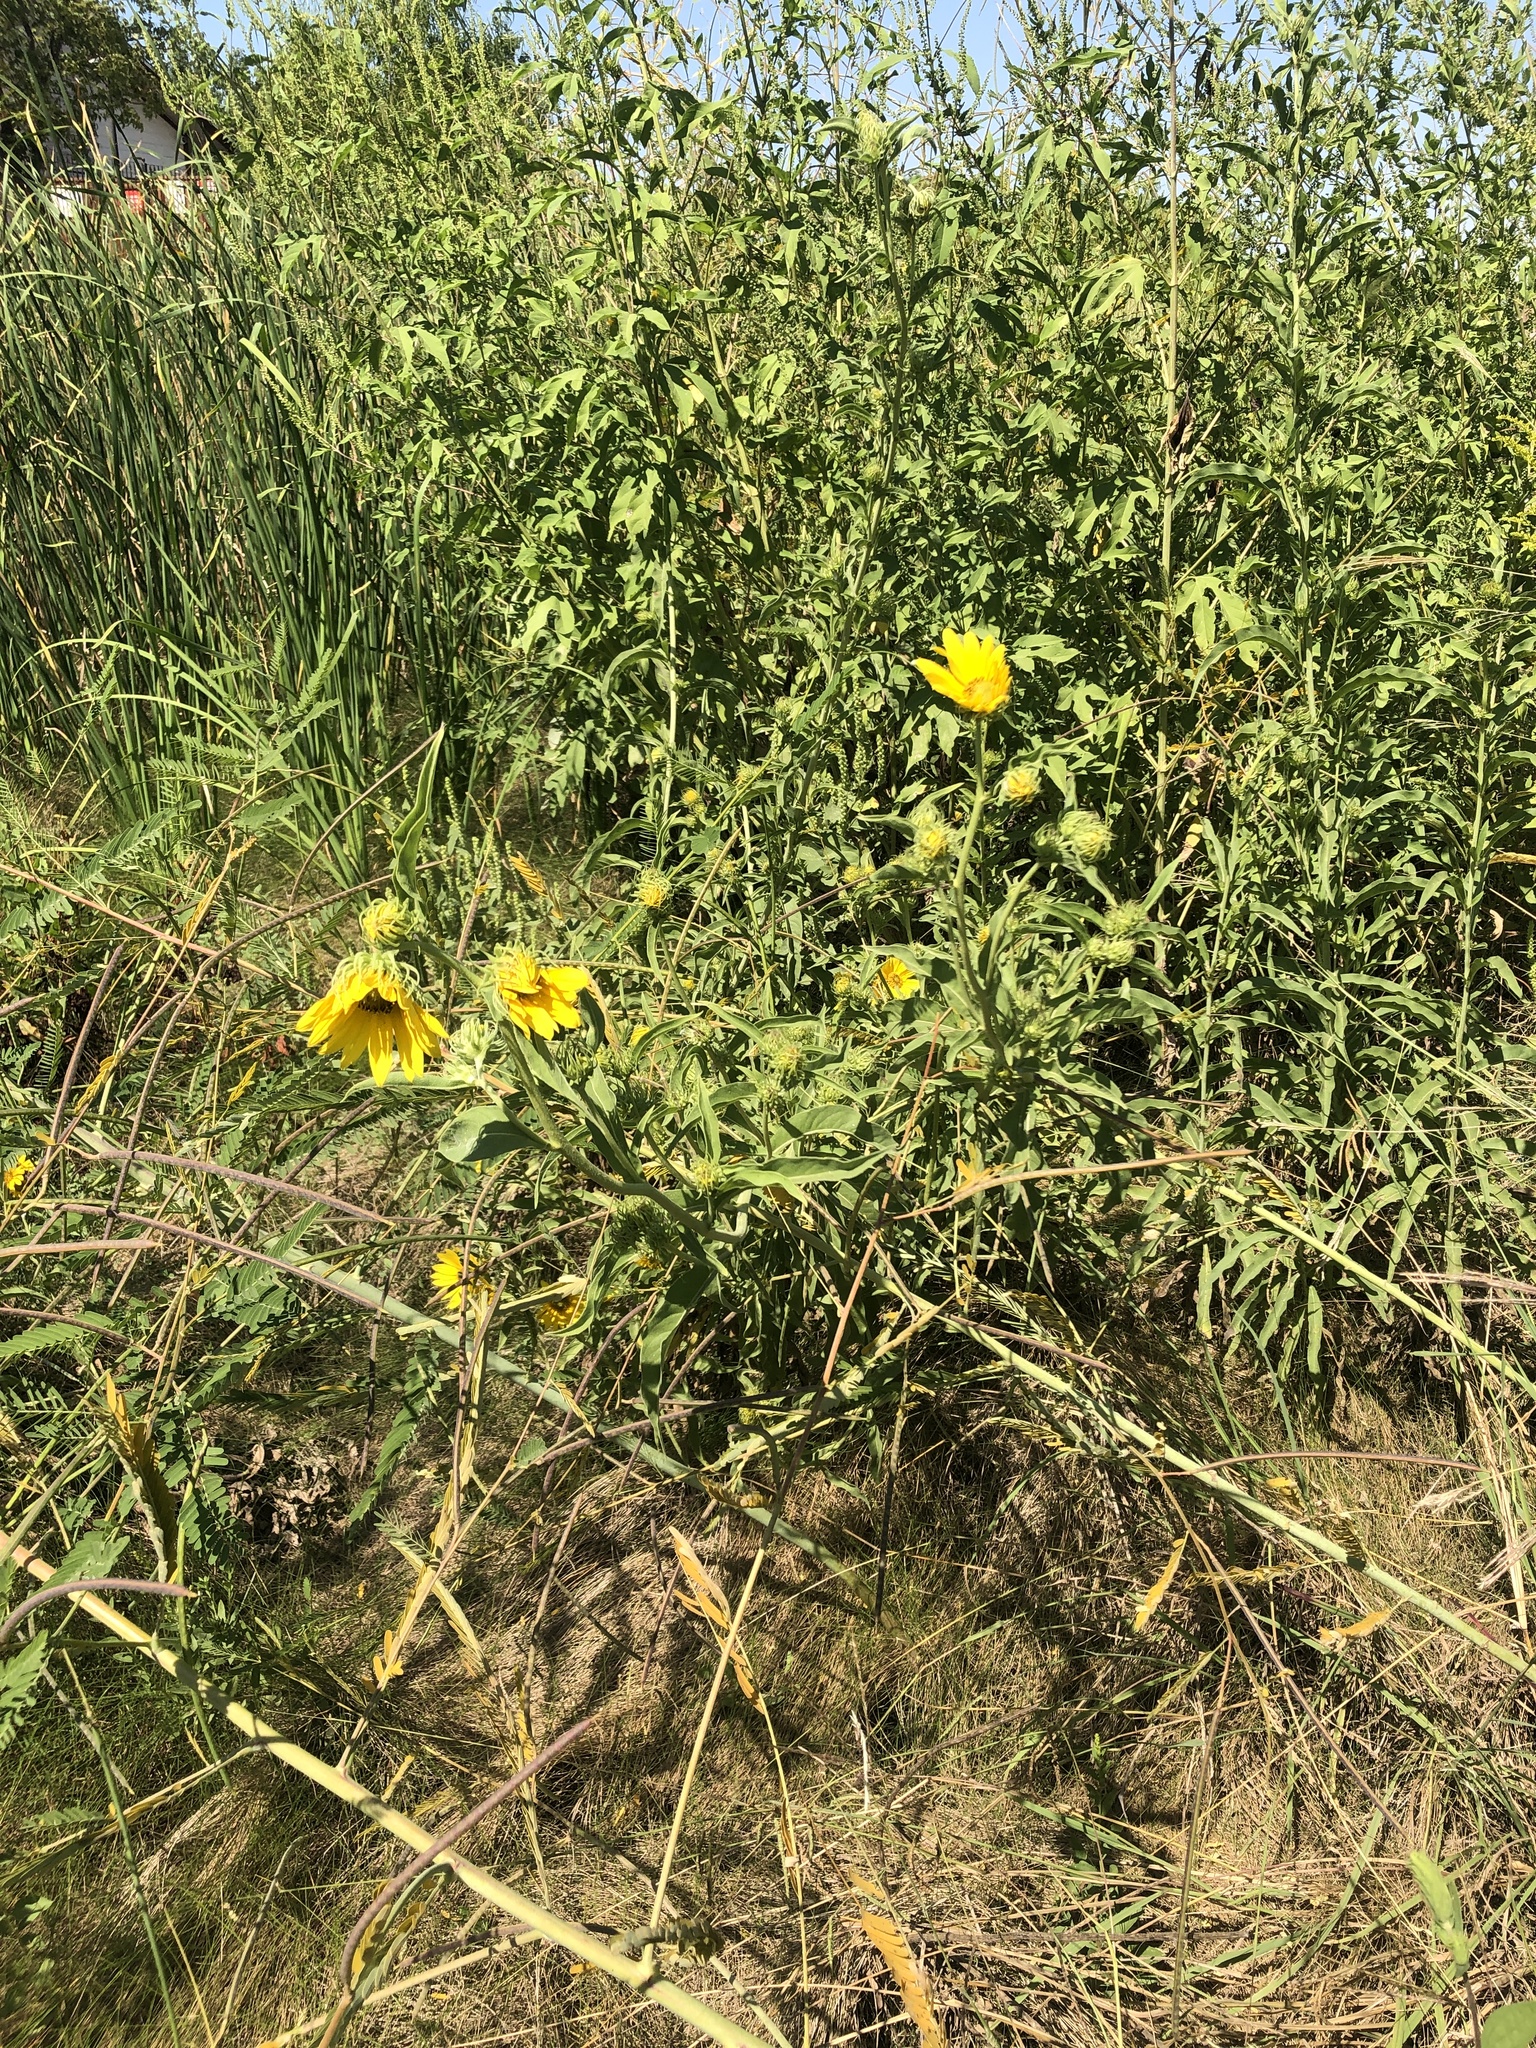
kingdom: Plantae
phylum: Tracheophyta
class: Magnoliopsida
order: Asterales
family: Asteraceae
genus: Helianthus
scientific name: Helianthus maximiliani
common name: Maximilian's sunflower
